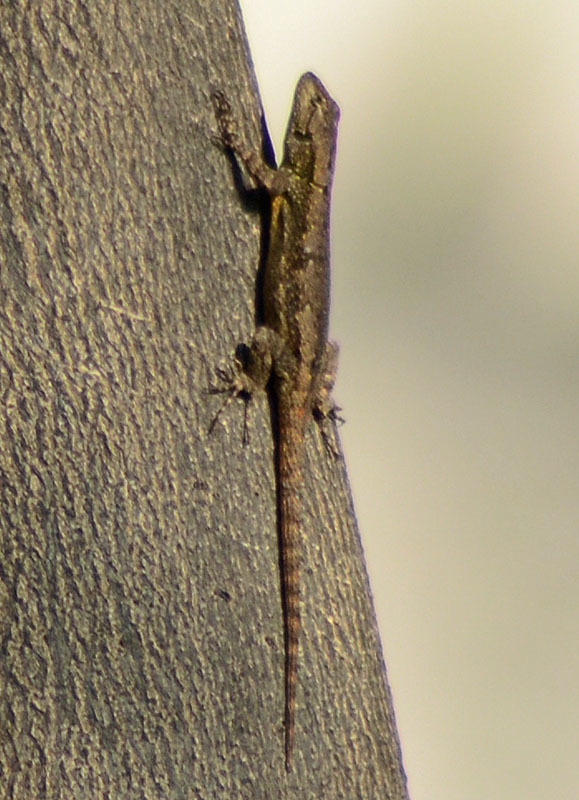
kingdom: Animalia
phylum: Chordata
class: Squamata
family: Phrynosomatidae
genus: Sceloporus
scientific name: Sceloporus grammicus
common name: Mesquite lizard
